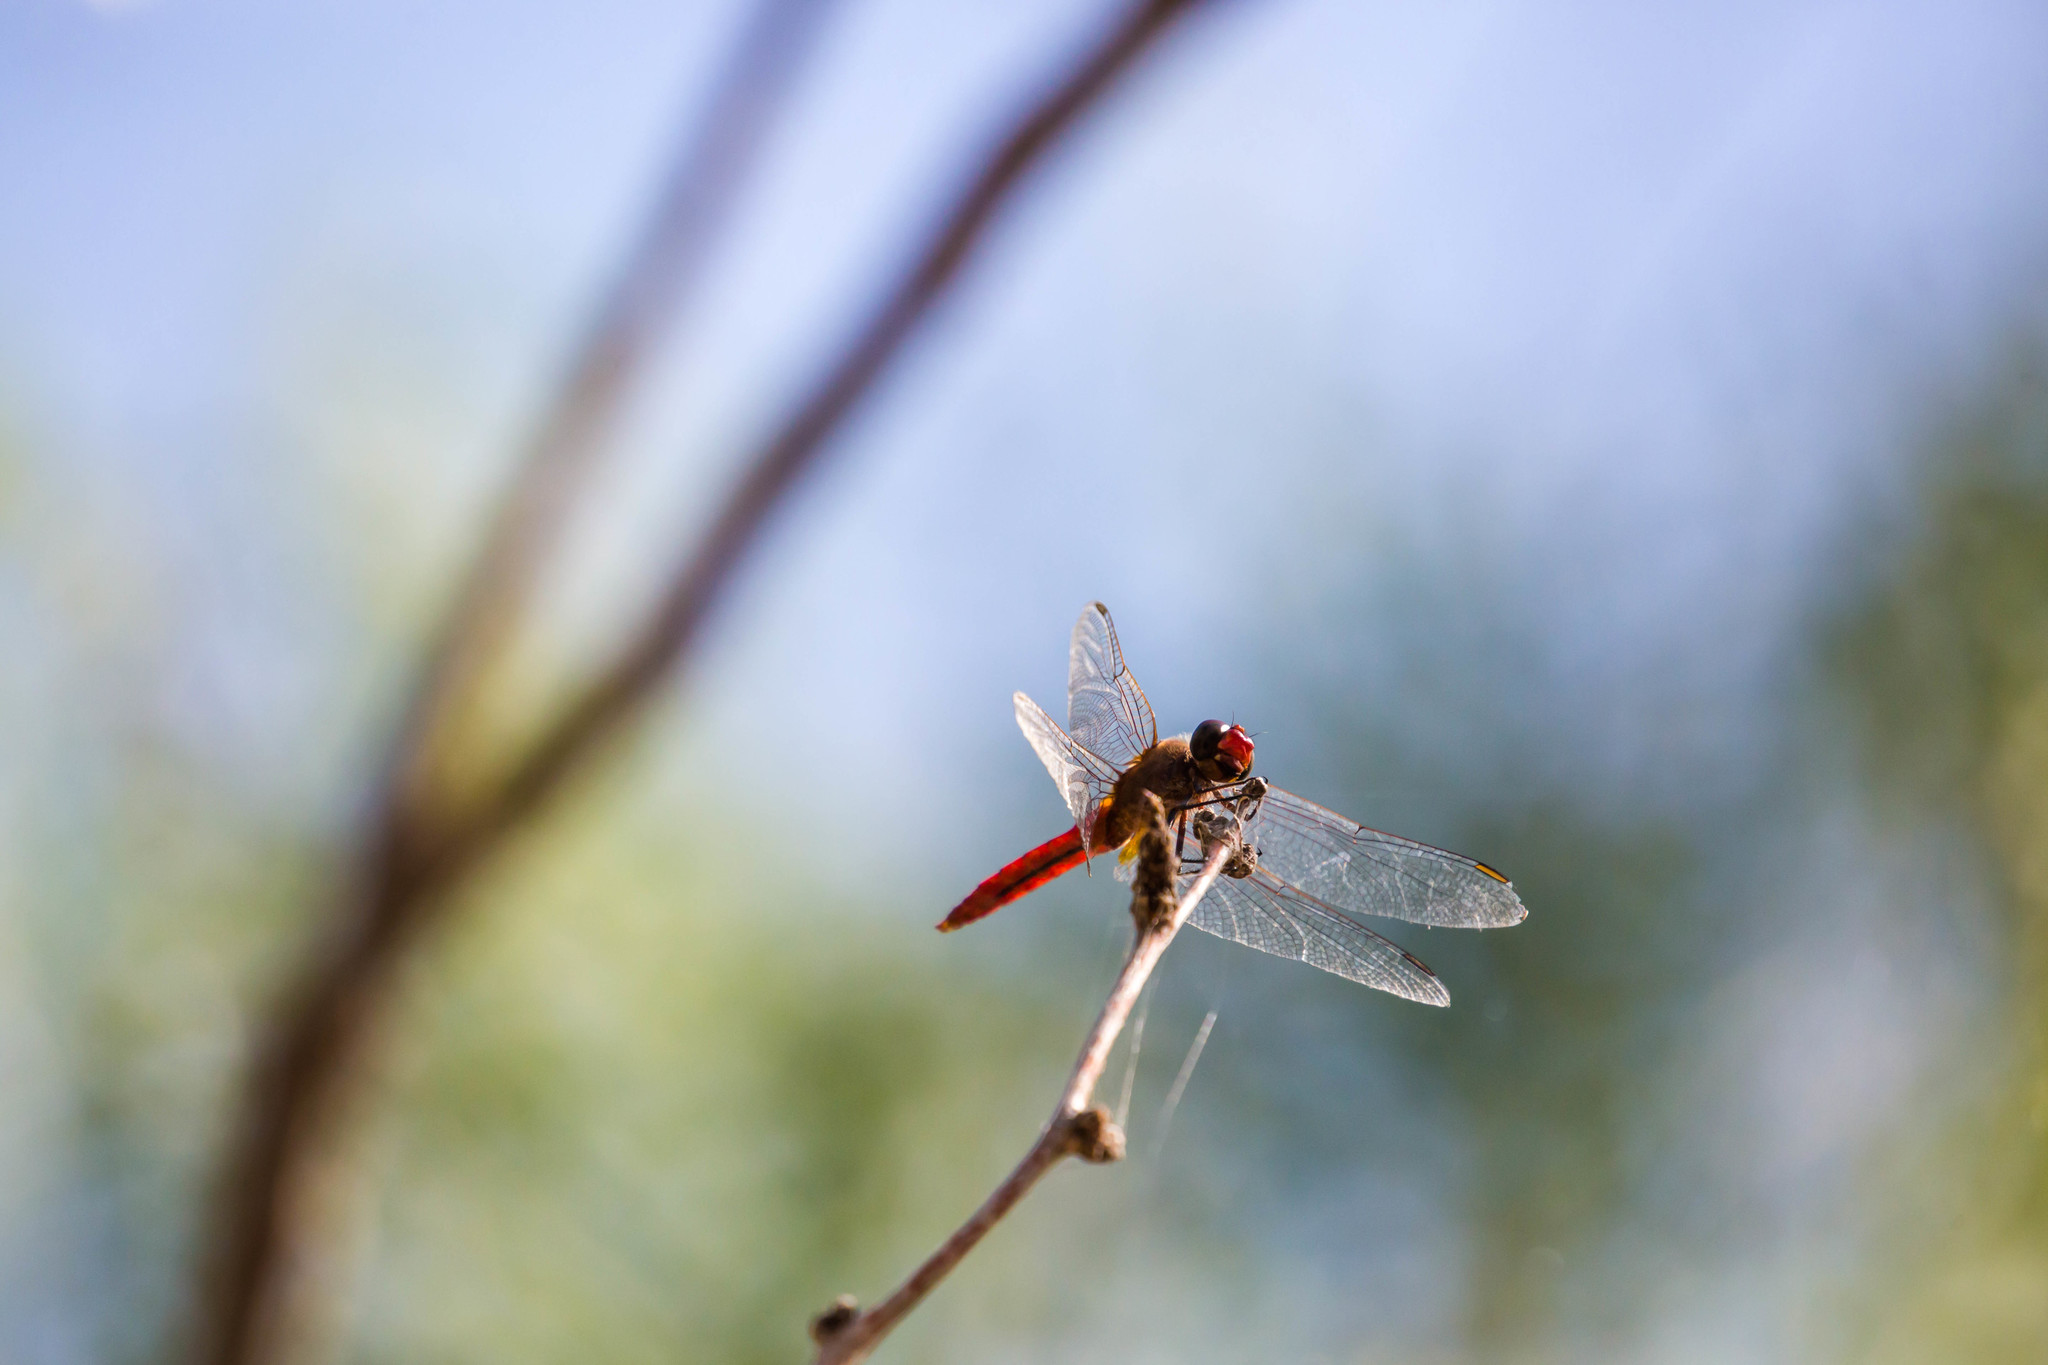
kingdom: Animalia
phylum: Arthropoda
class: Insecta
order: Odonata
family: Libellulidae
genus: Brachymesia
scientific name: Brachymesia furcata
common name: Red-taled pennant
